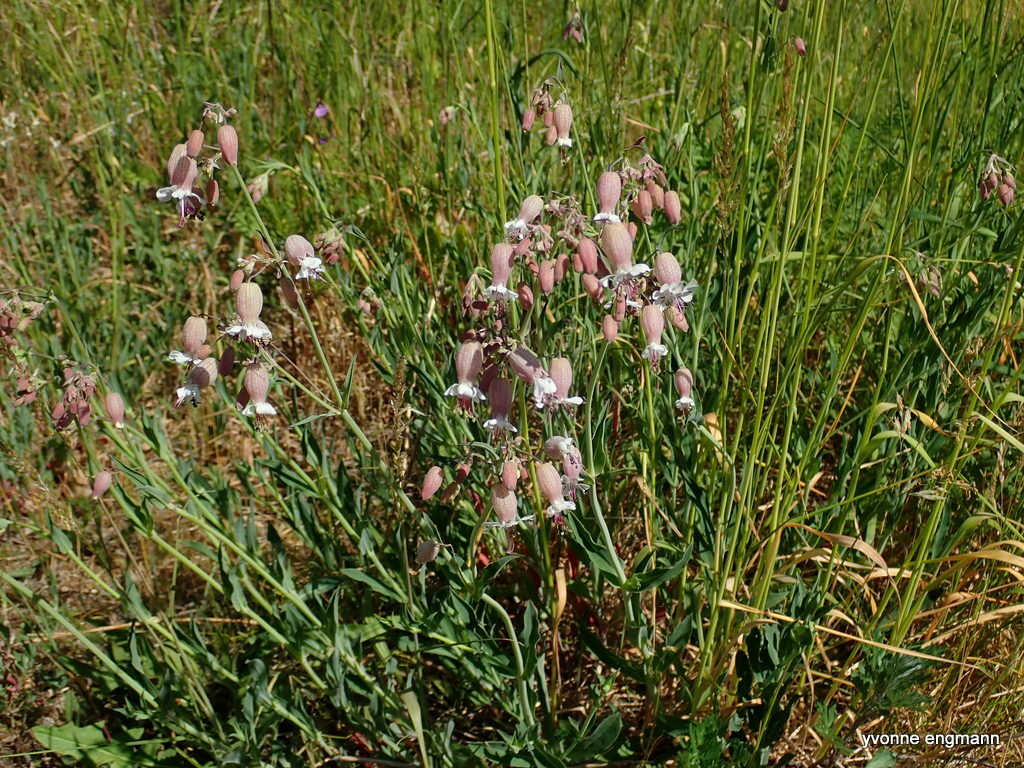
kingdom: Plantae
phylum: Tracheophyta
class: Magnoliopsida
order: Caryophyllales
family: Caryophyllaceae
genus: Silene
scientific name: Silene vulgaris
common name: Bladder campion
